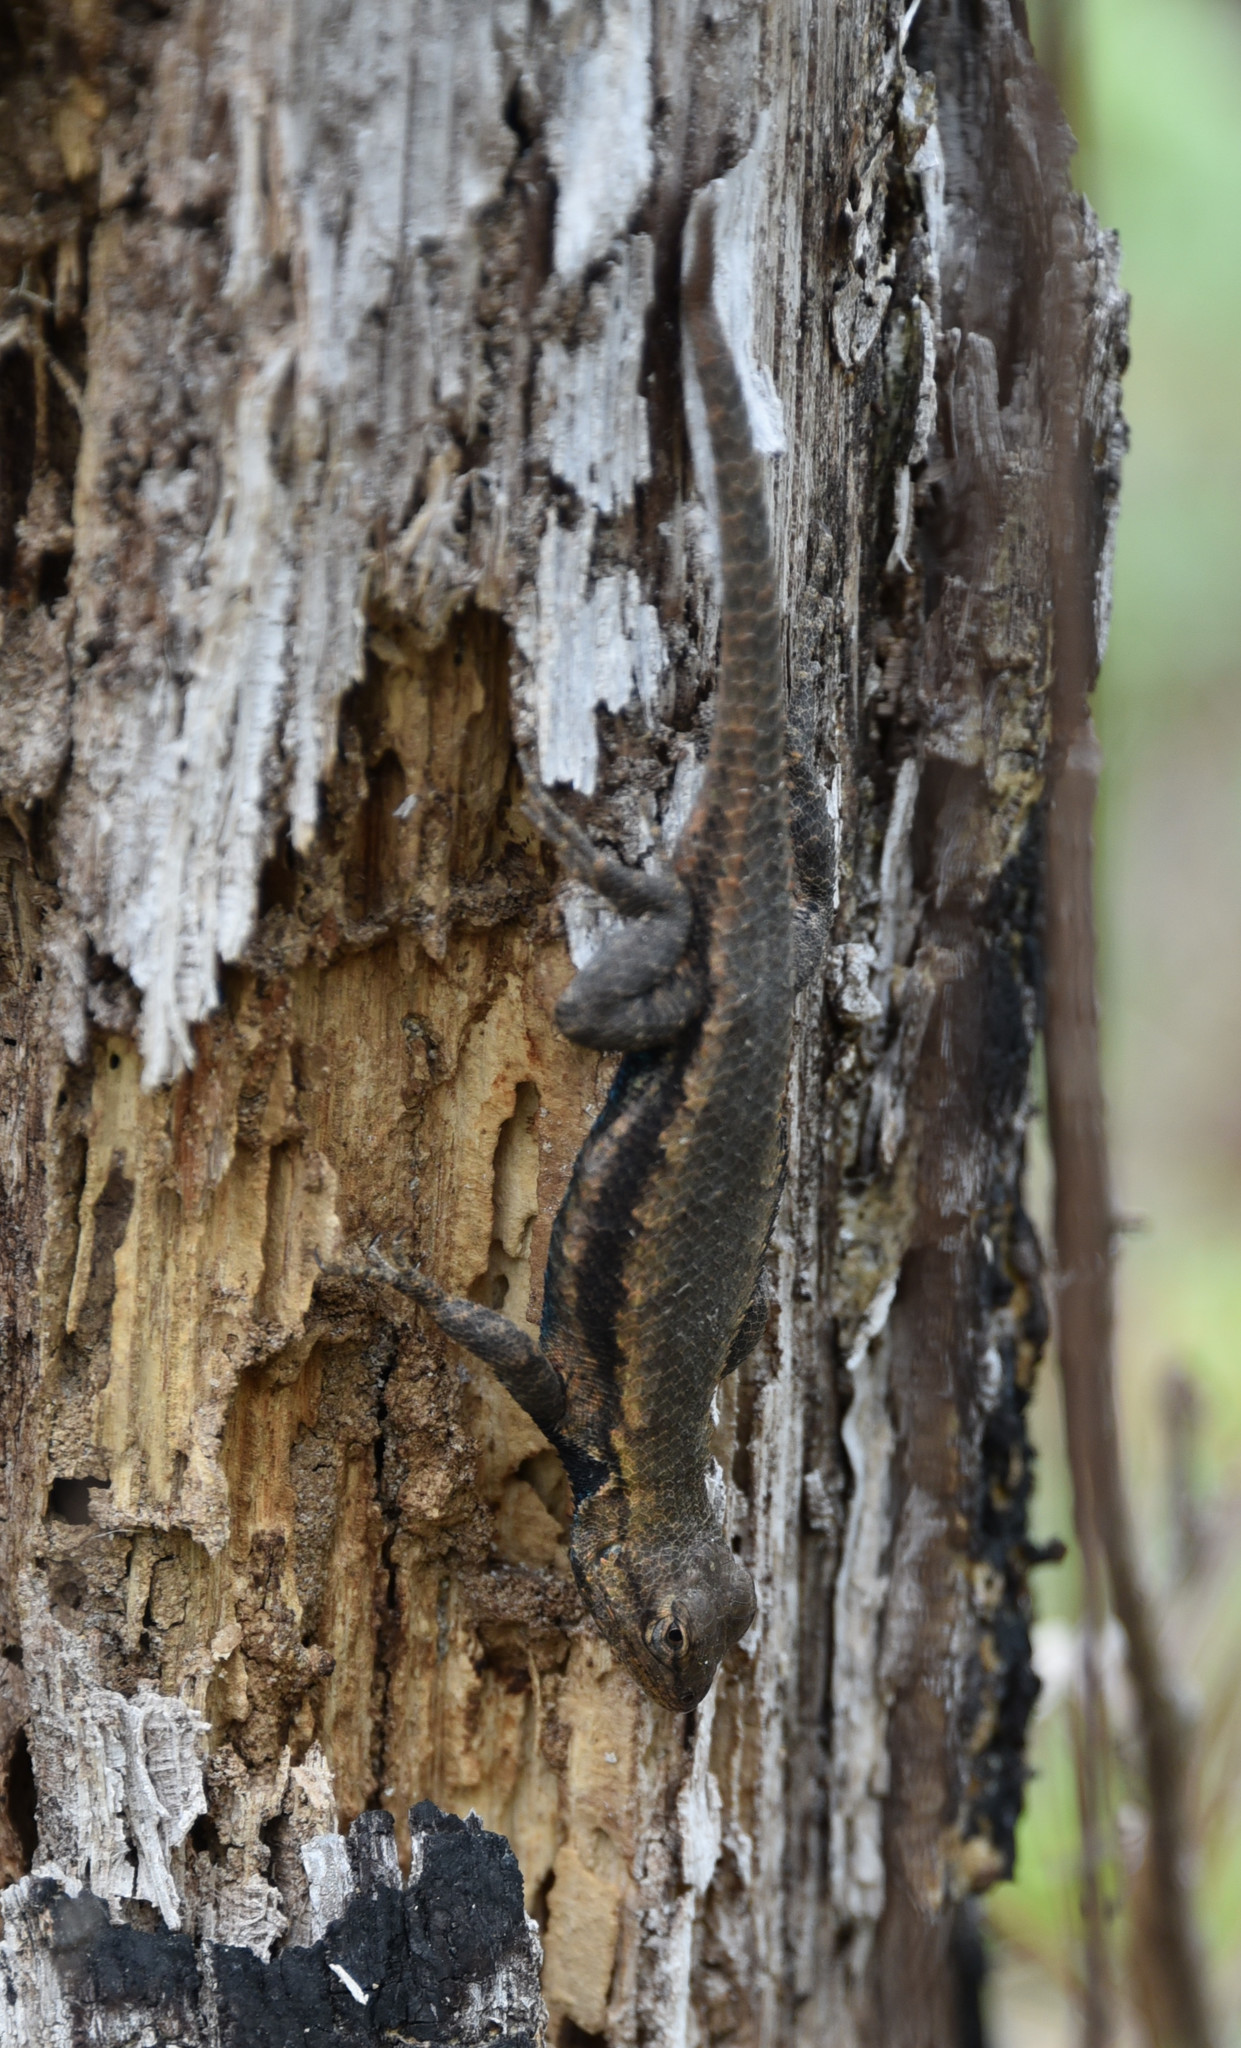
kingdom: Animalia
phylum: Chordata
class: Squamata
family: Phrynosomatidae
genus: Sceloporus
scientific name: Sceloporus consobrinus
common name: Southern prairie lizard
